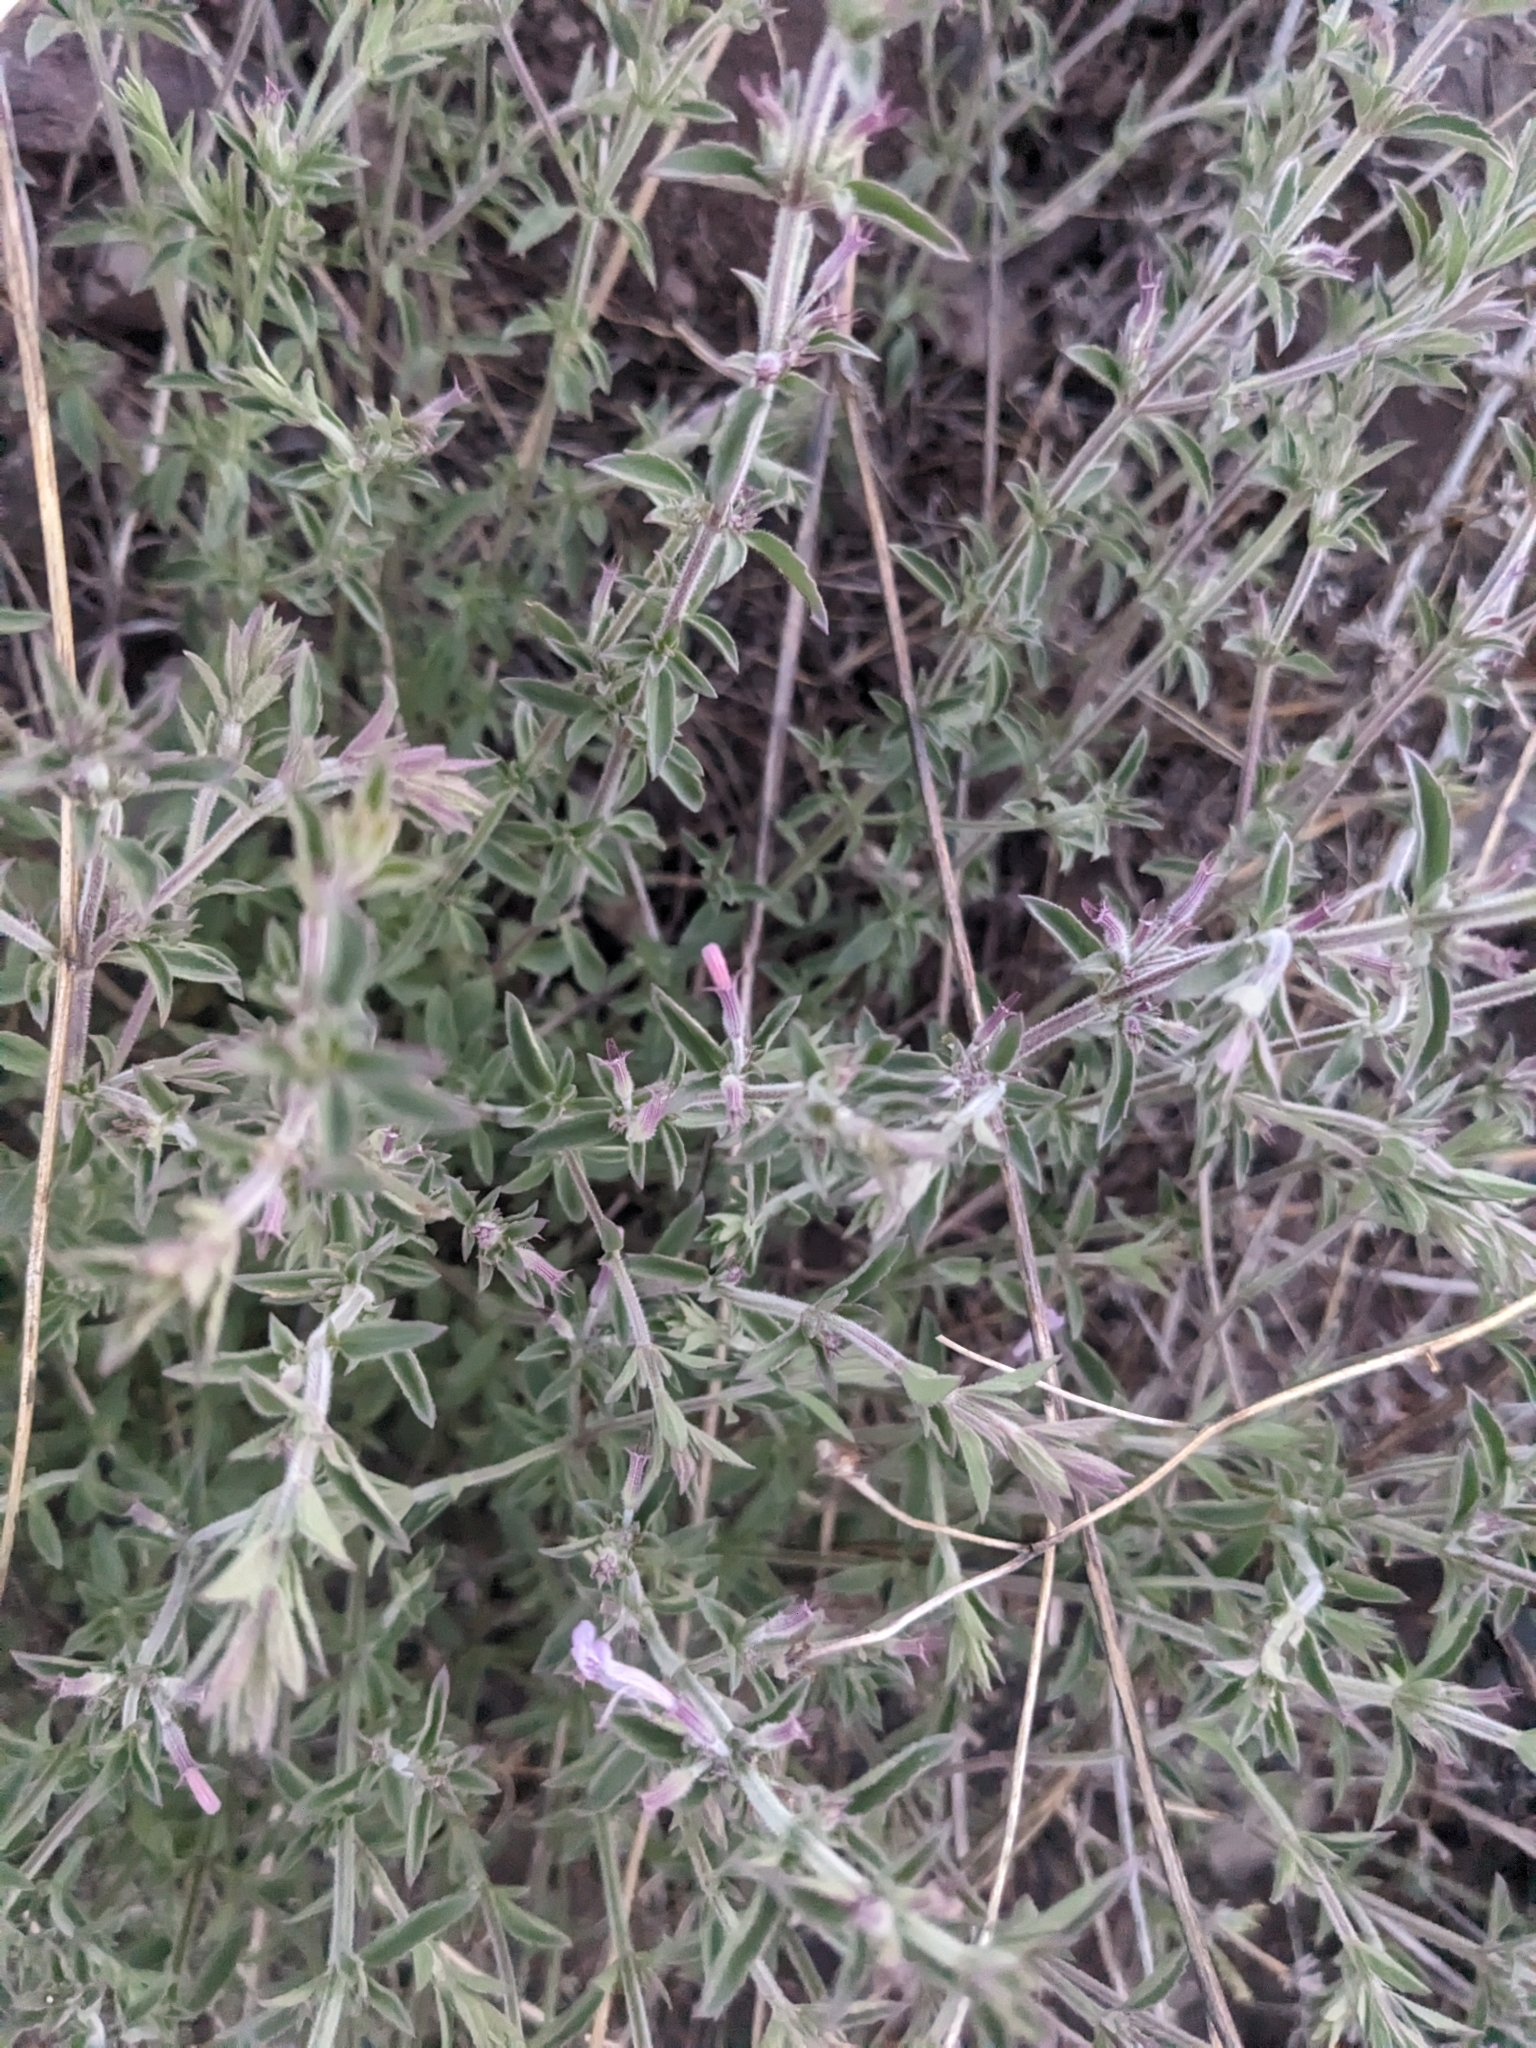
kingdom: Plantae
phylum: Tracheophyta
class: Magnoliopsida
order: Lamiales
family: Lamiaceae
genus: Hedeoma
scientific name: Hedeoma oblongifolia
